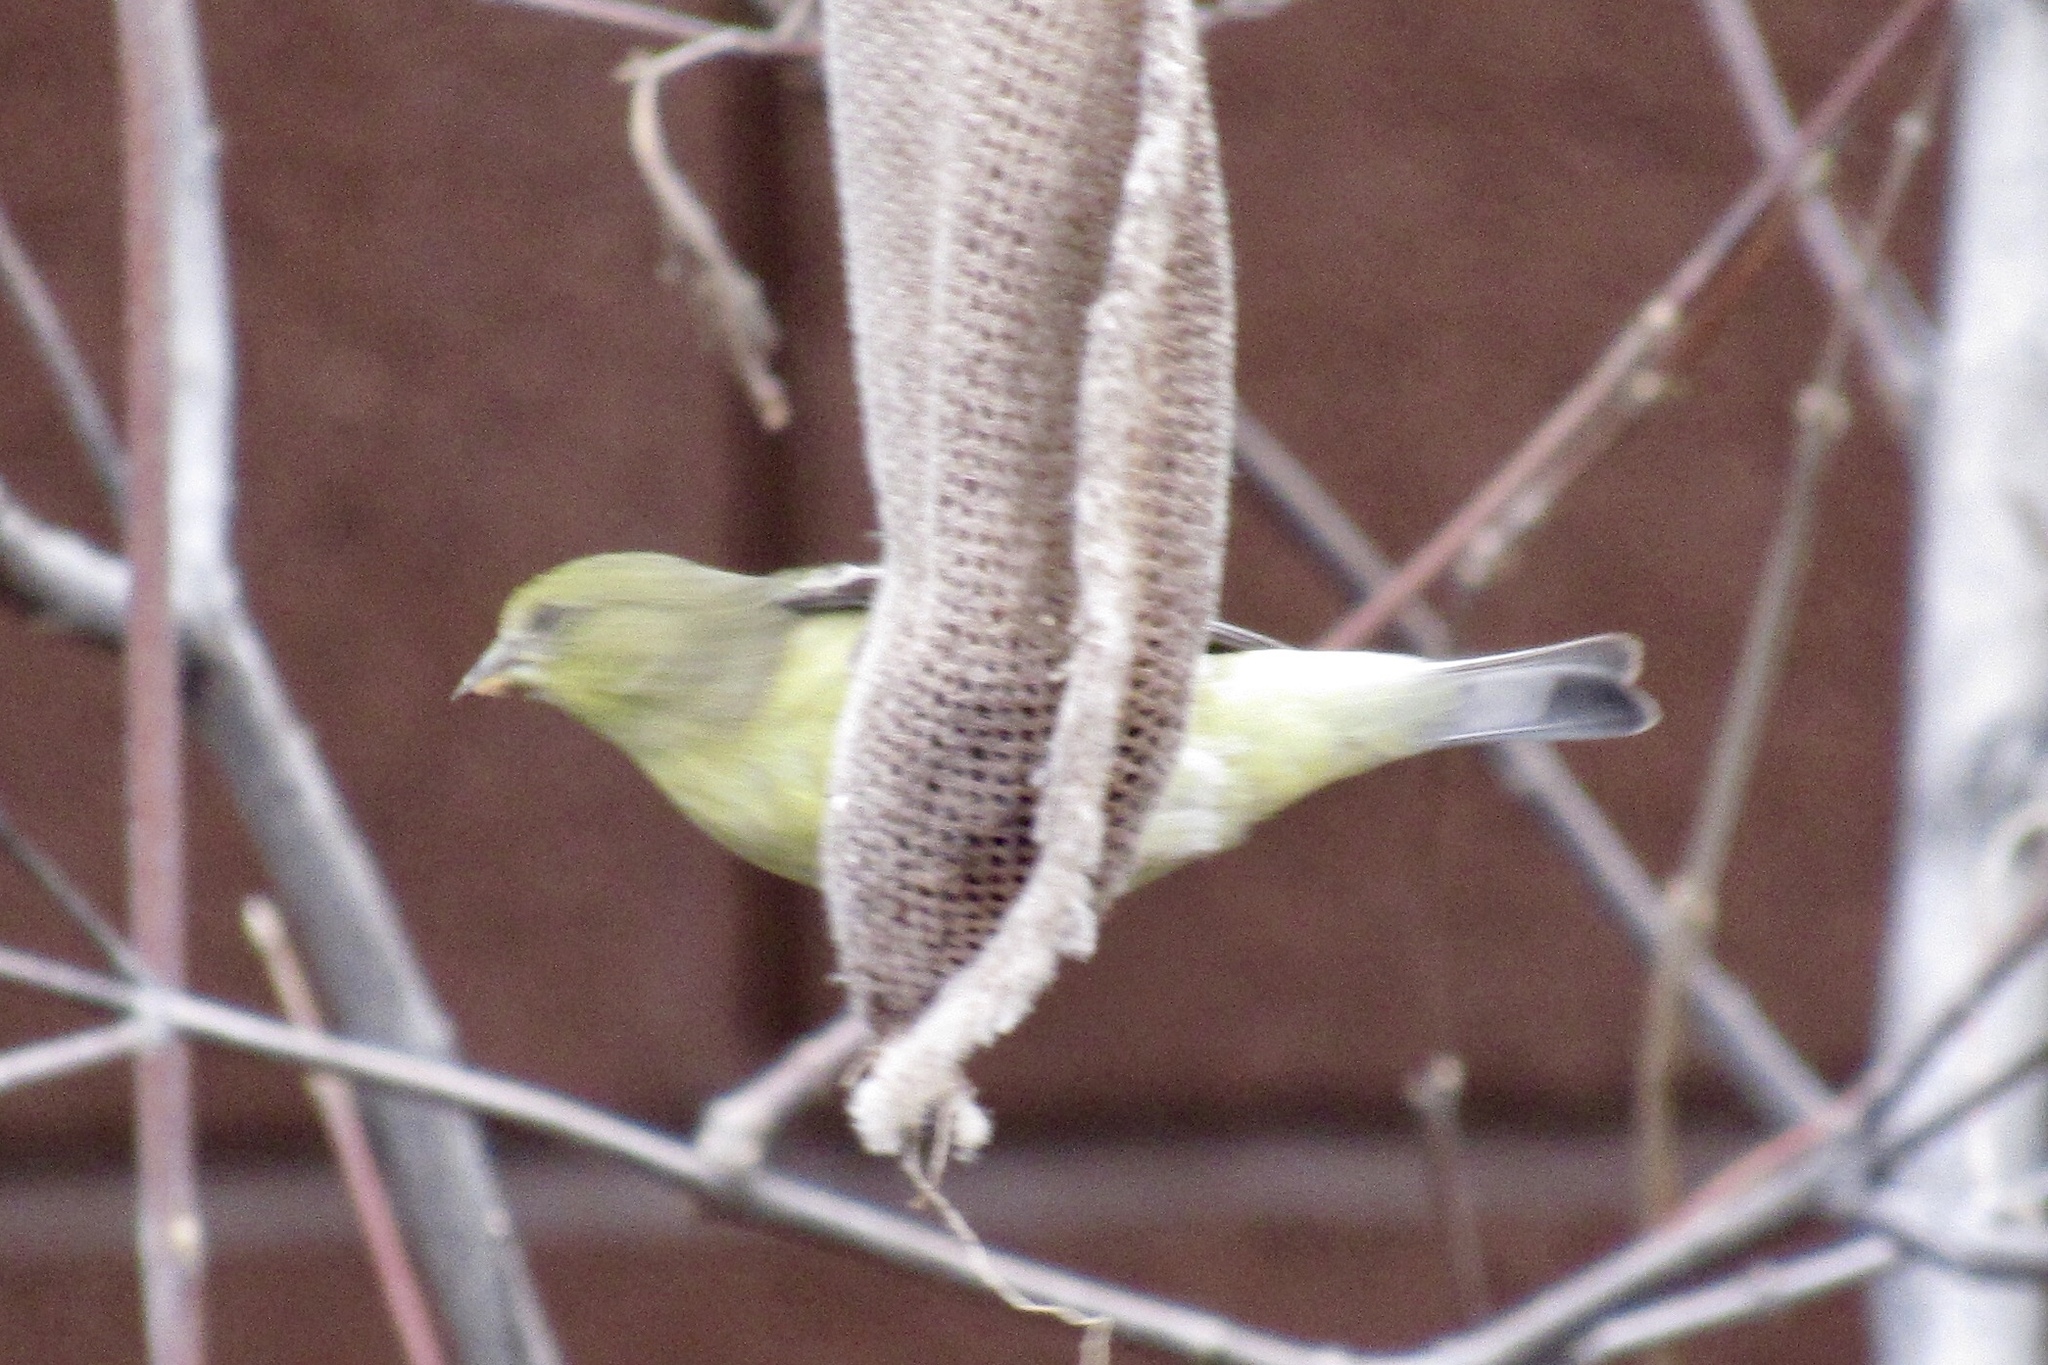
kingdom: Animalia
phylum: Chordata
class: Aves
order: Passeriformes
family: Fringillidae
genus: Spinus
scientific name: Spinus psaltria
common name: Lesser goldfinch
